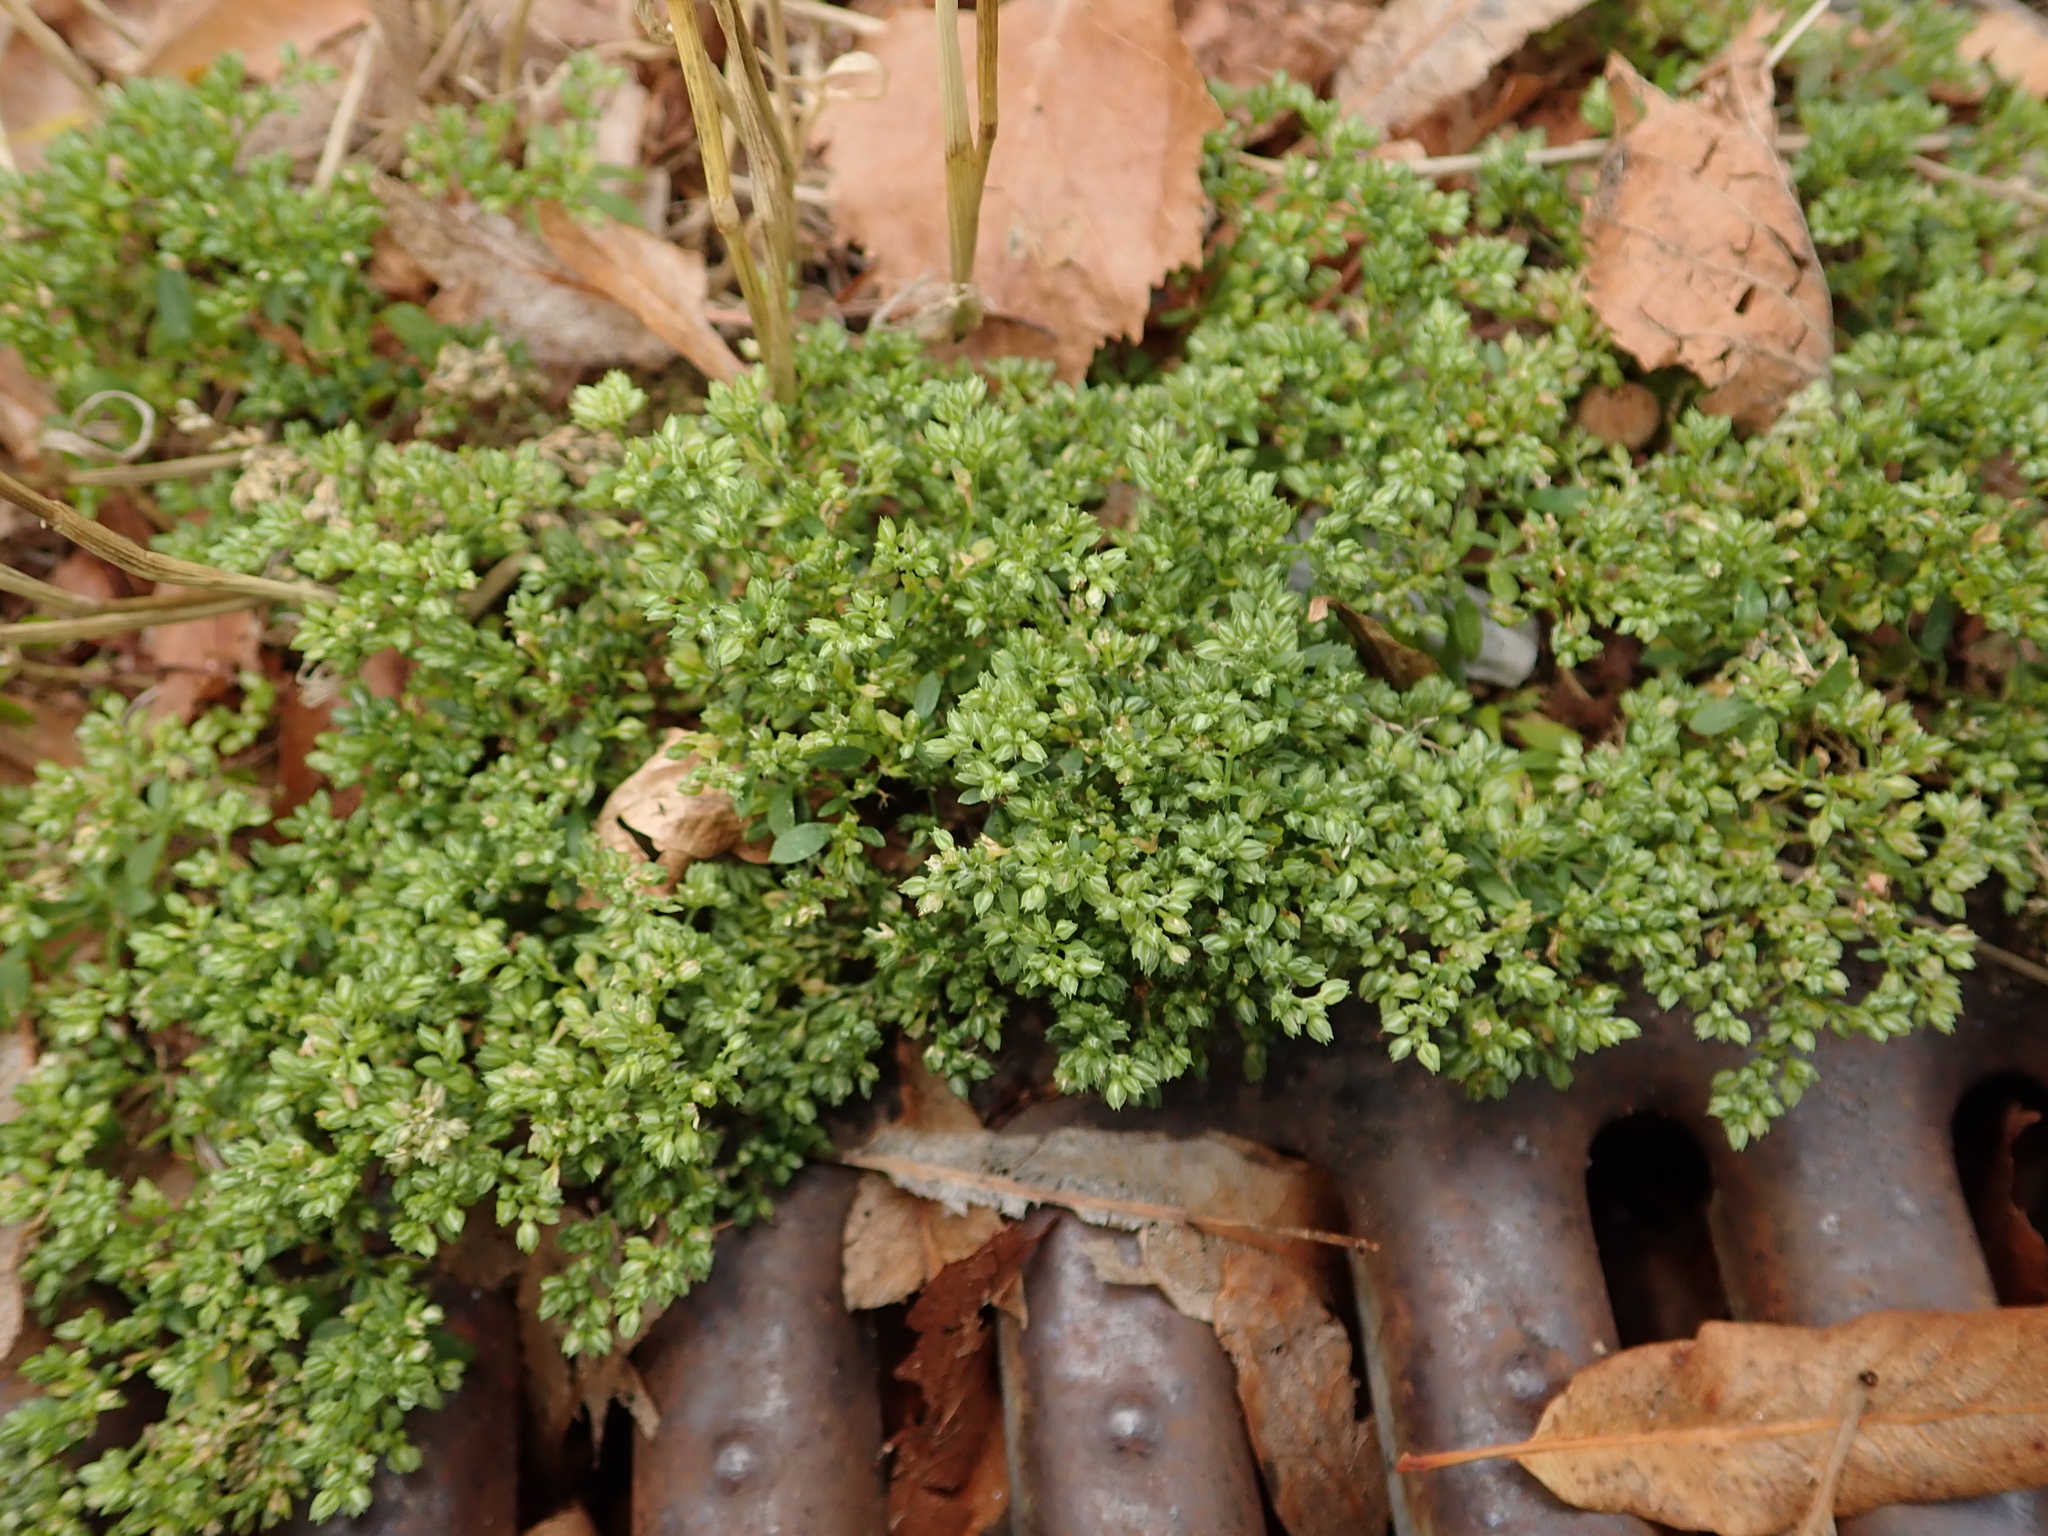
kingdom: Plantae
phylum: Tracheophyta
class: Magnoliopsida
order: Caryophyllales
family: Caryophyllaceae
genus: Polycarpon
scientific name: Polycarpon tetraphyllum
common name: Four-leaved all-seed
